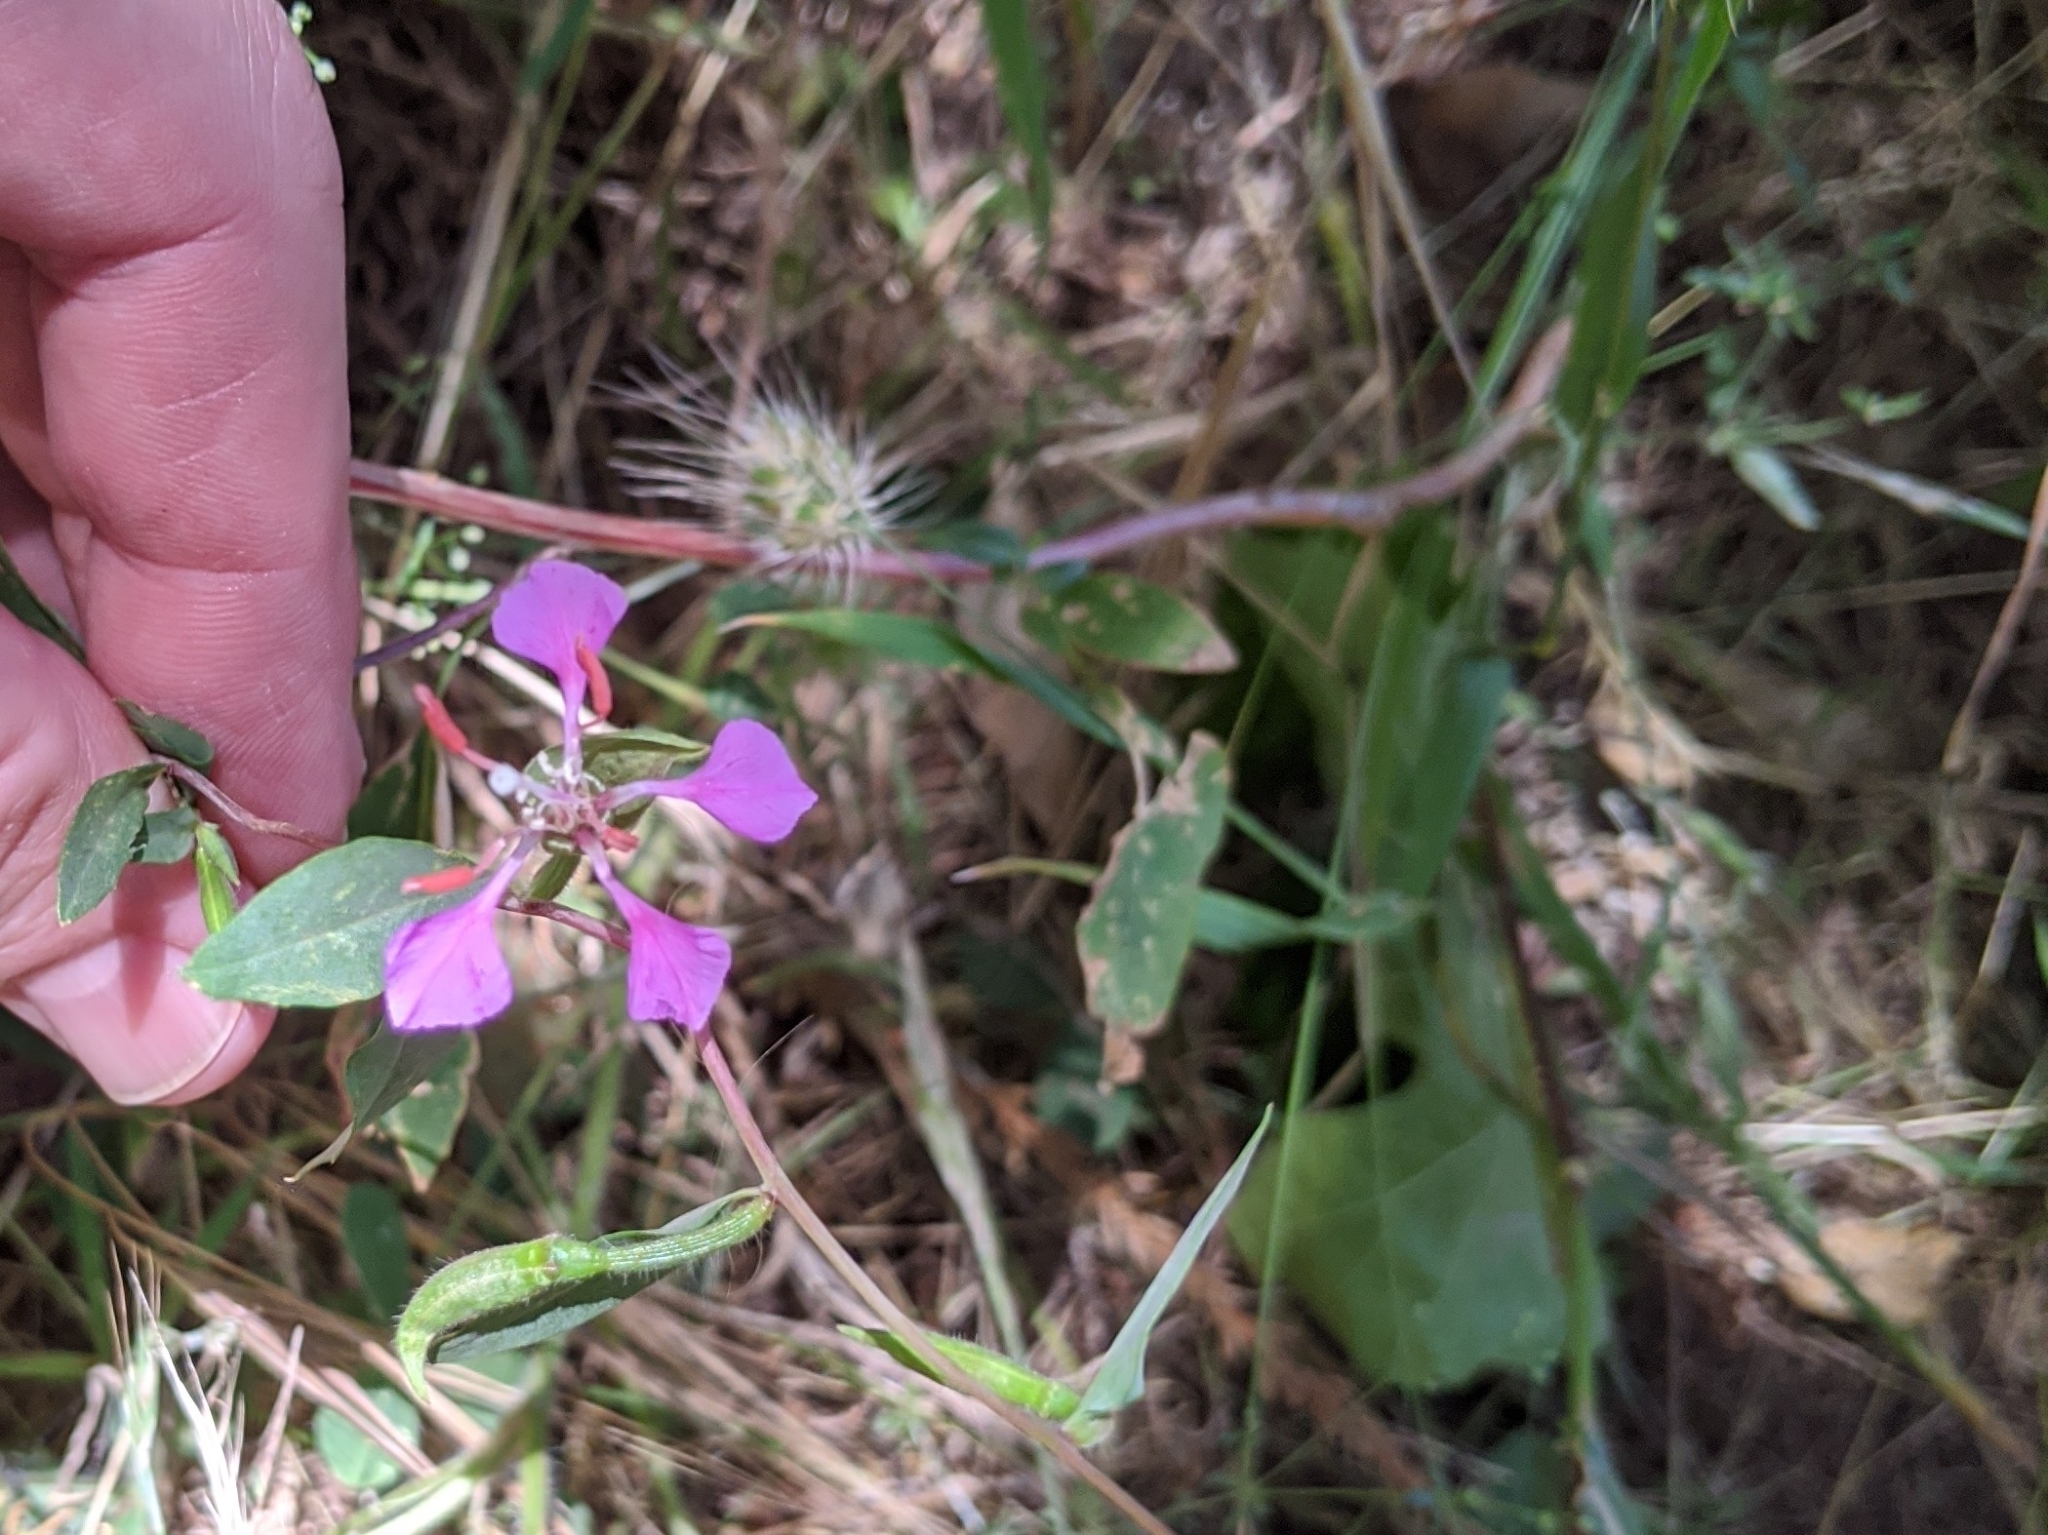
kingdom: Plantae
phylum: Tracheophyta
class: Magnoliopsida
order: Myrtales
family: Onagraceae
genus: Clarkia
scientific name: Clarkia unguiculata
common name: Clarkia
